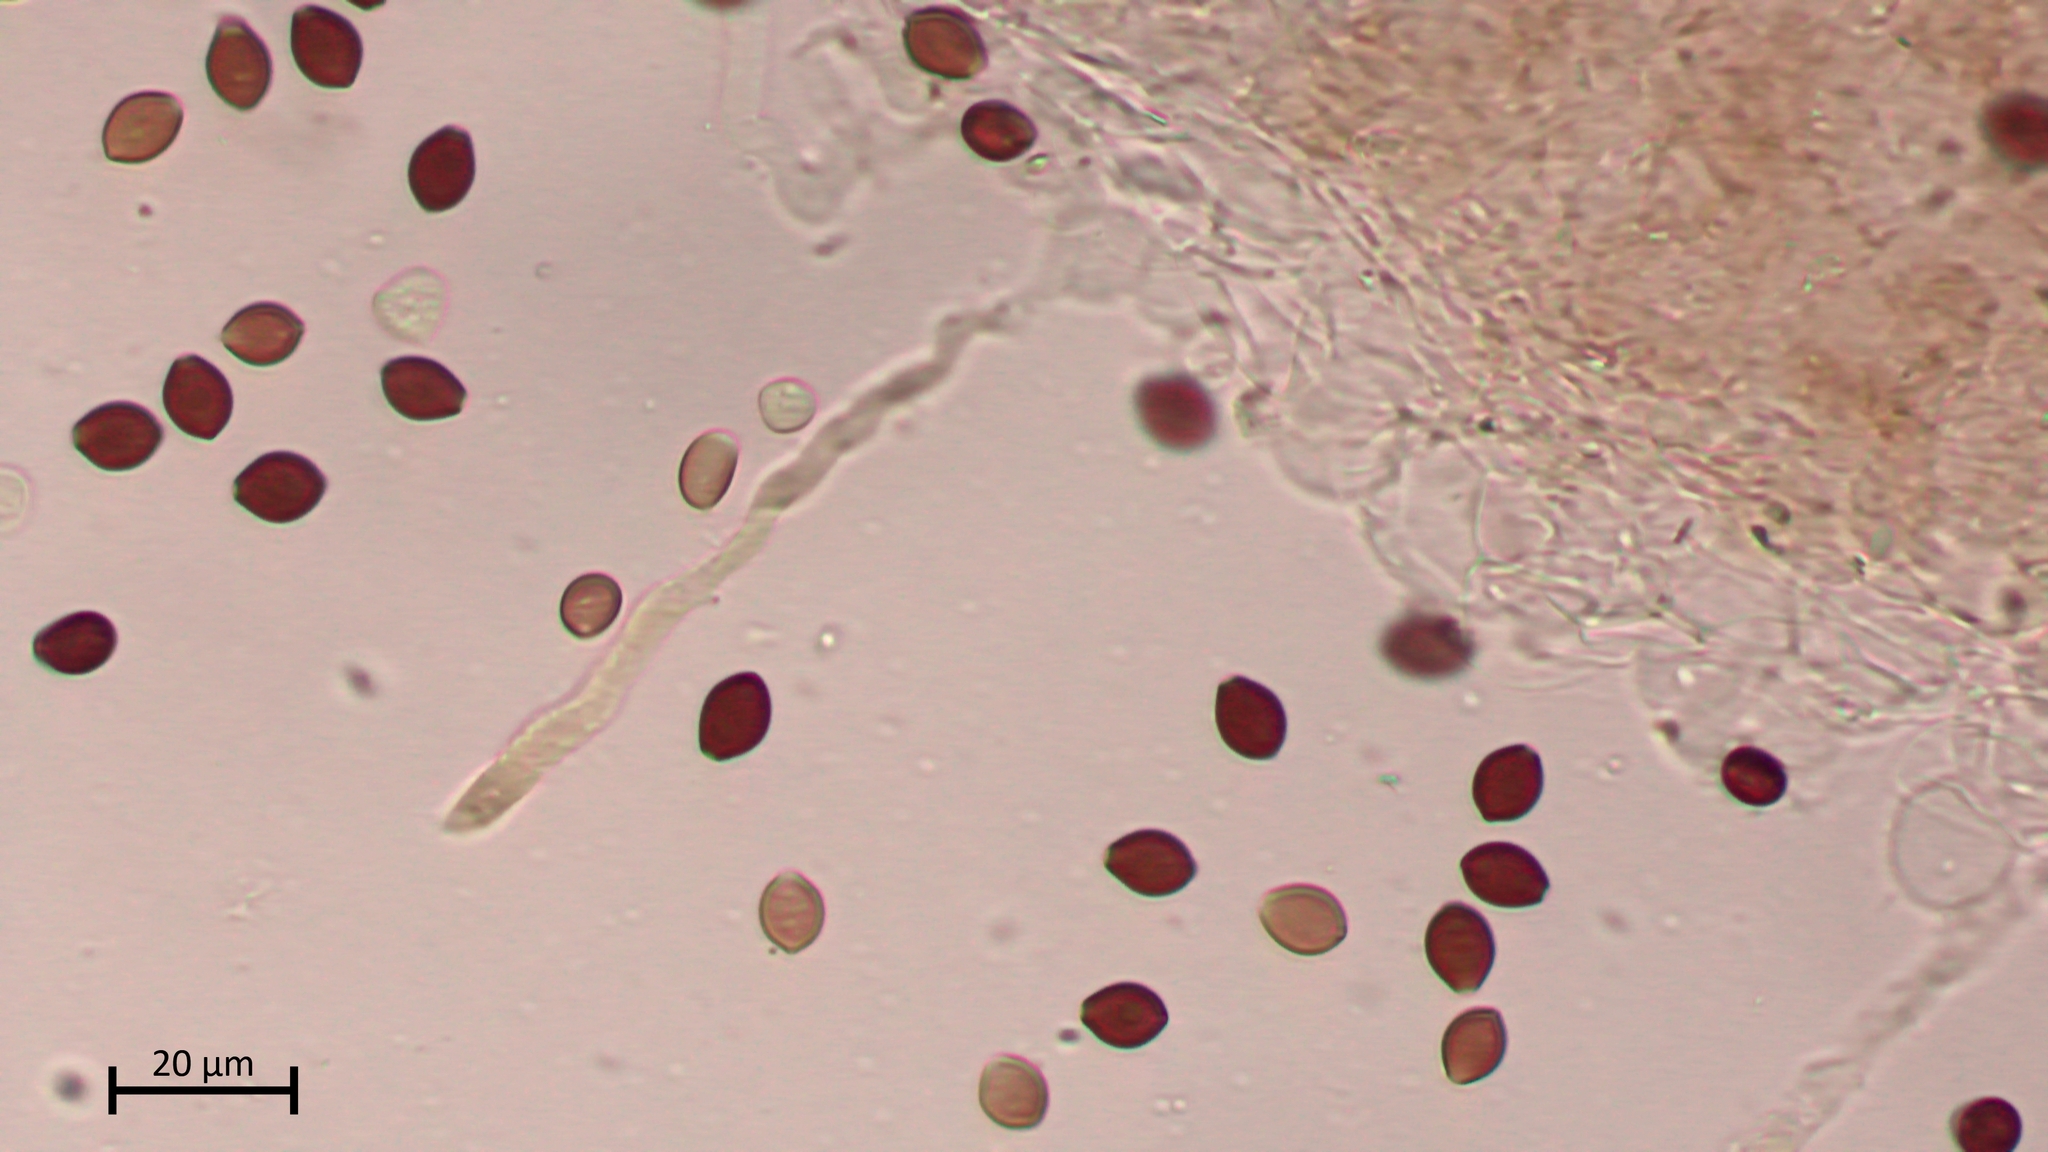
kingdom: Fungi
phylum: Basidiomycota
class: Agaricomycetes
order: Agaricales
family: Bolbitiaceae
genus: Panaeolus
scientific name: Panaeolus sylvaticus
